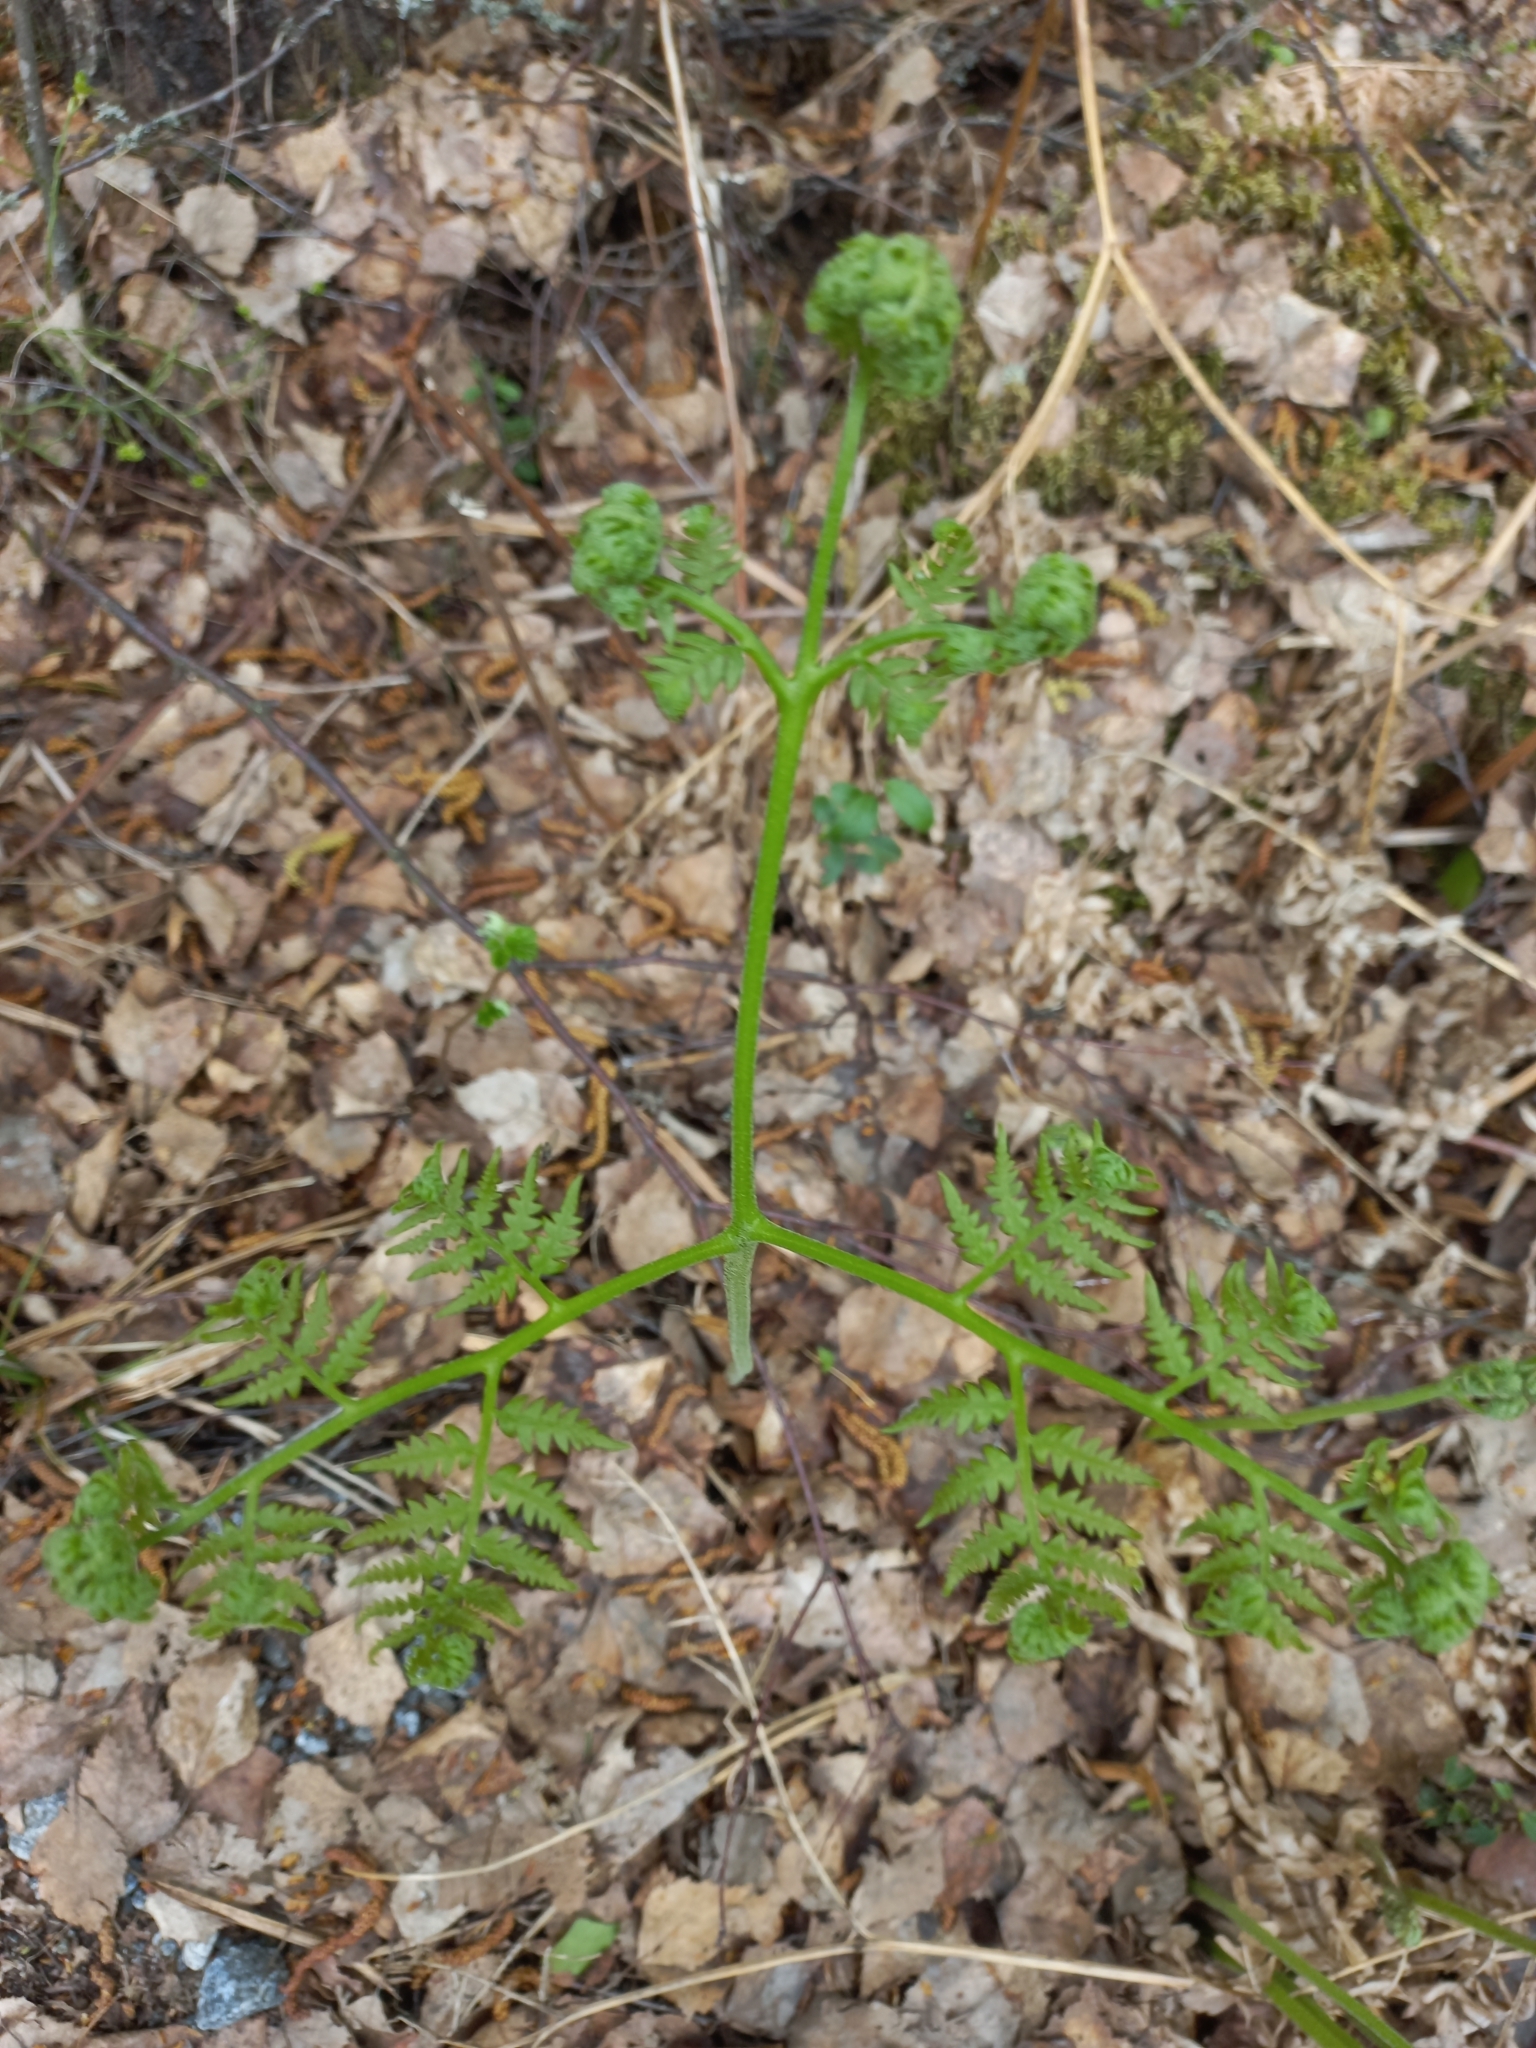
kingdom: Plantae
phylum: Tracheophyta
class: Polypodiopsida
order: Polypodiales
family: Dennstaedtiaceae
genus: Pteridium
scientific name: Pteridium aquilinum
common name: Bracken
